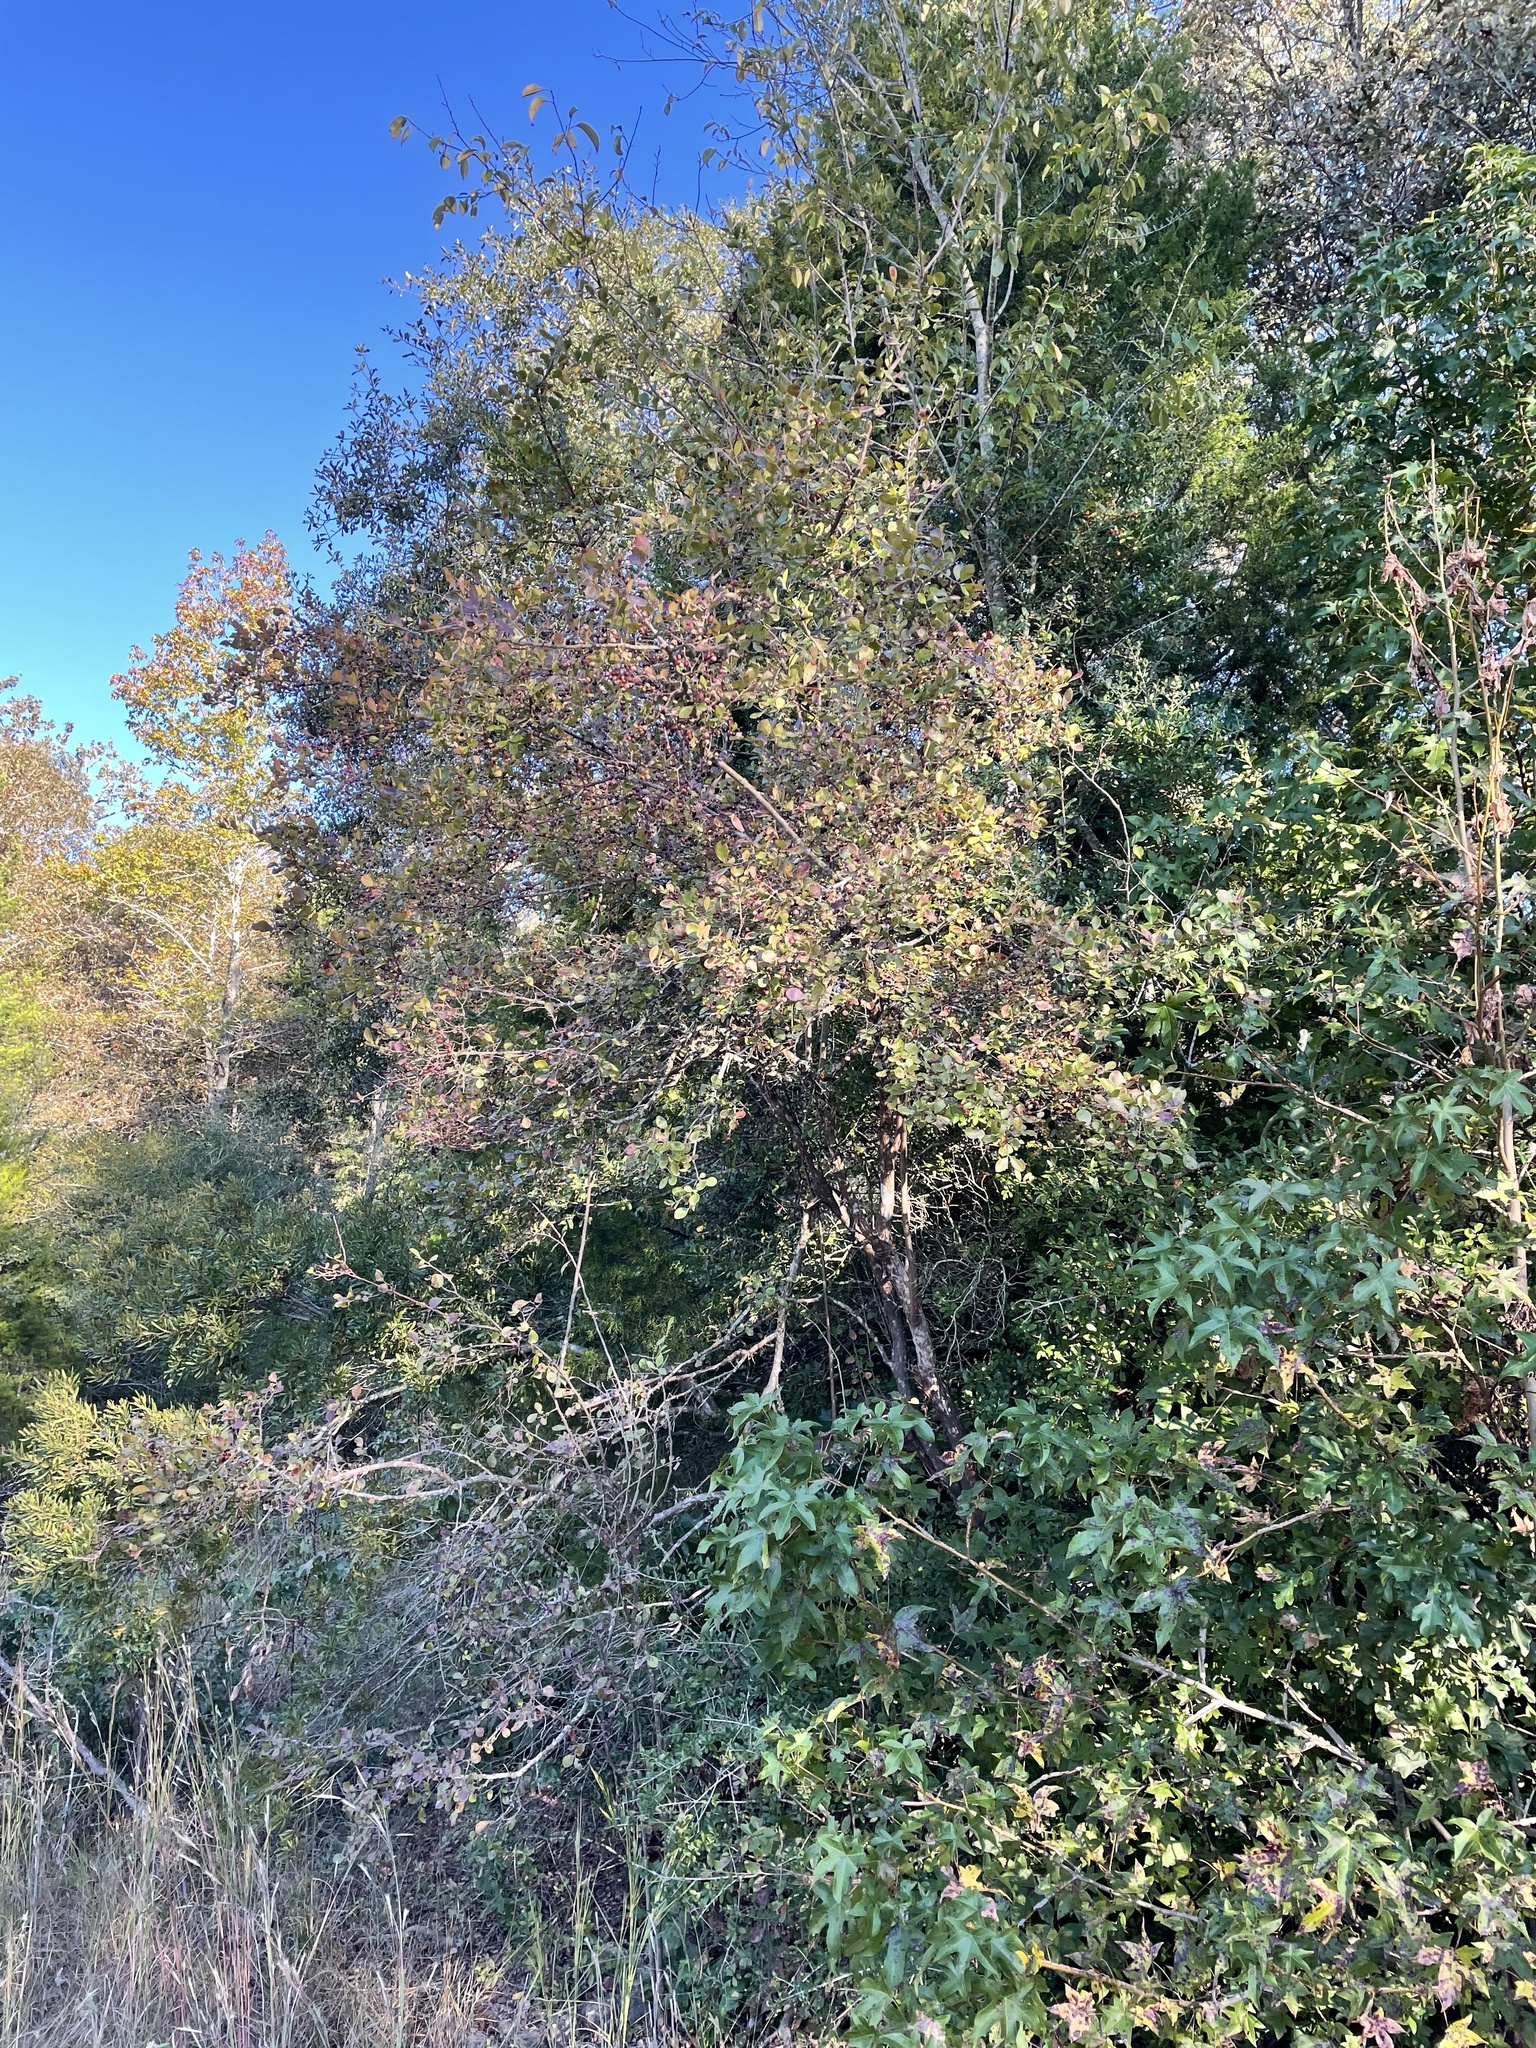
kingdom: Plantae
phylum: Tracheophyta
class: Magnoliopsida
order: Ericales
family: Ericaceae
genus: Vaccinium
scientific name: Vaccinium arboreum
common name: Farkleberry
